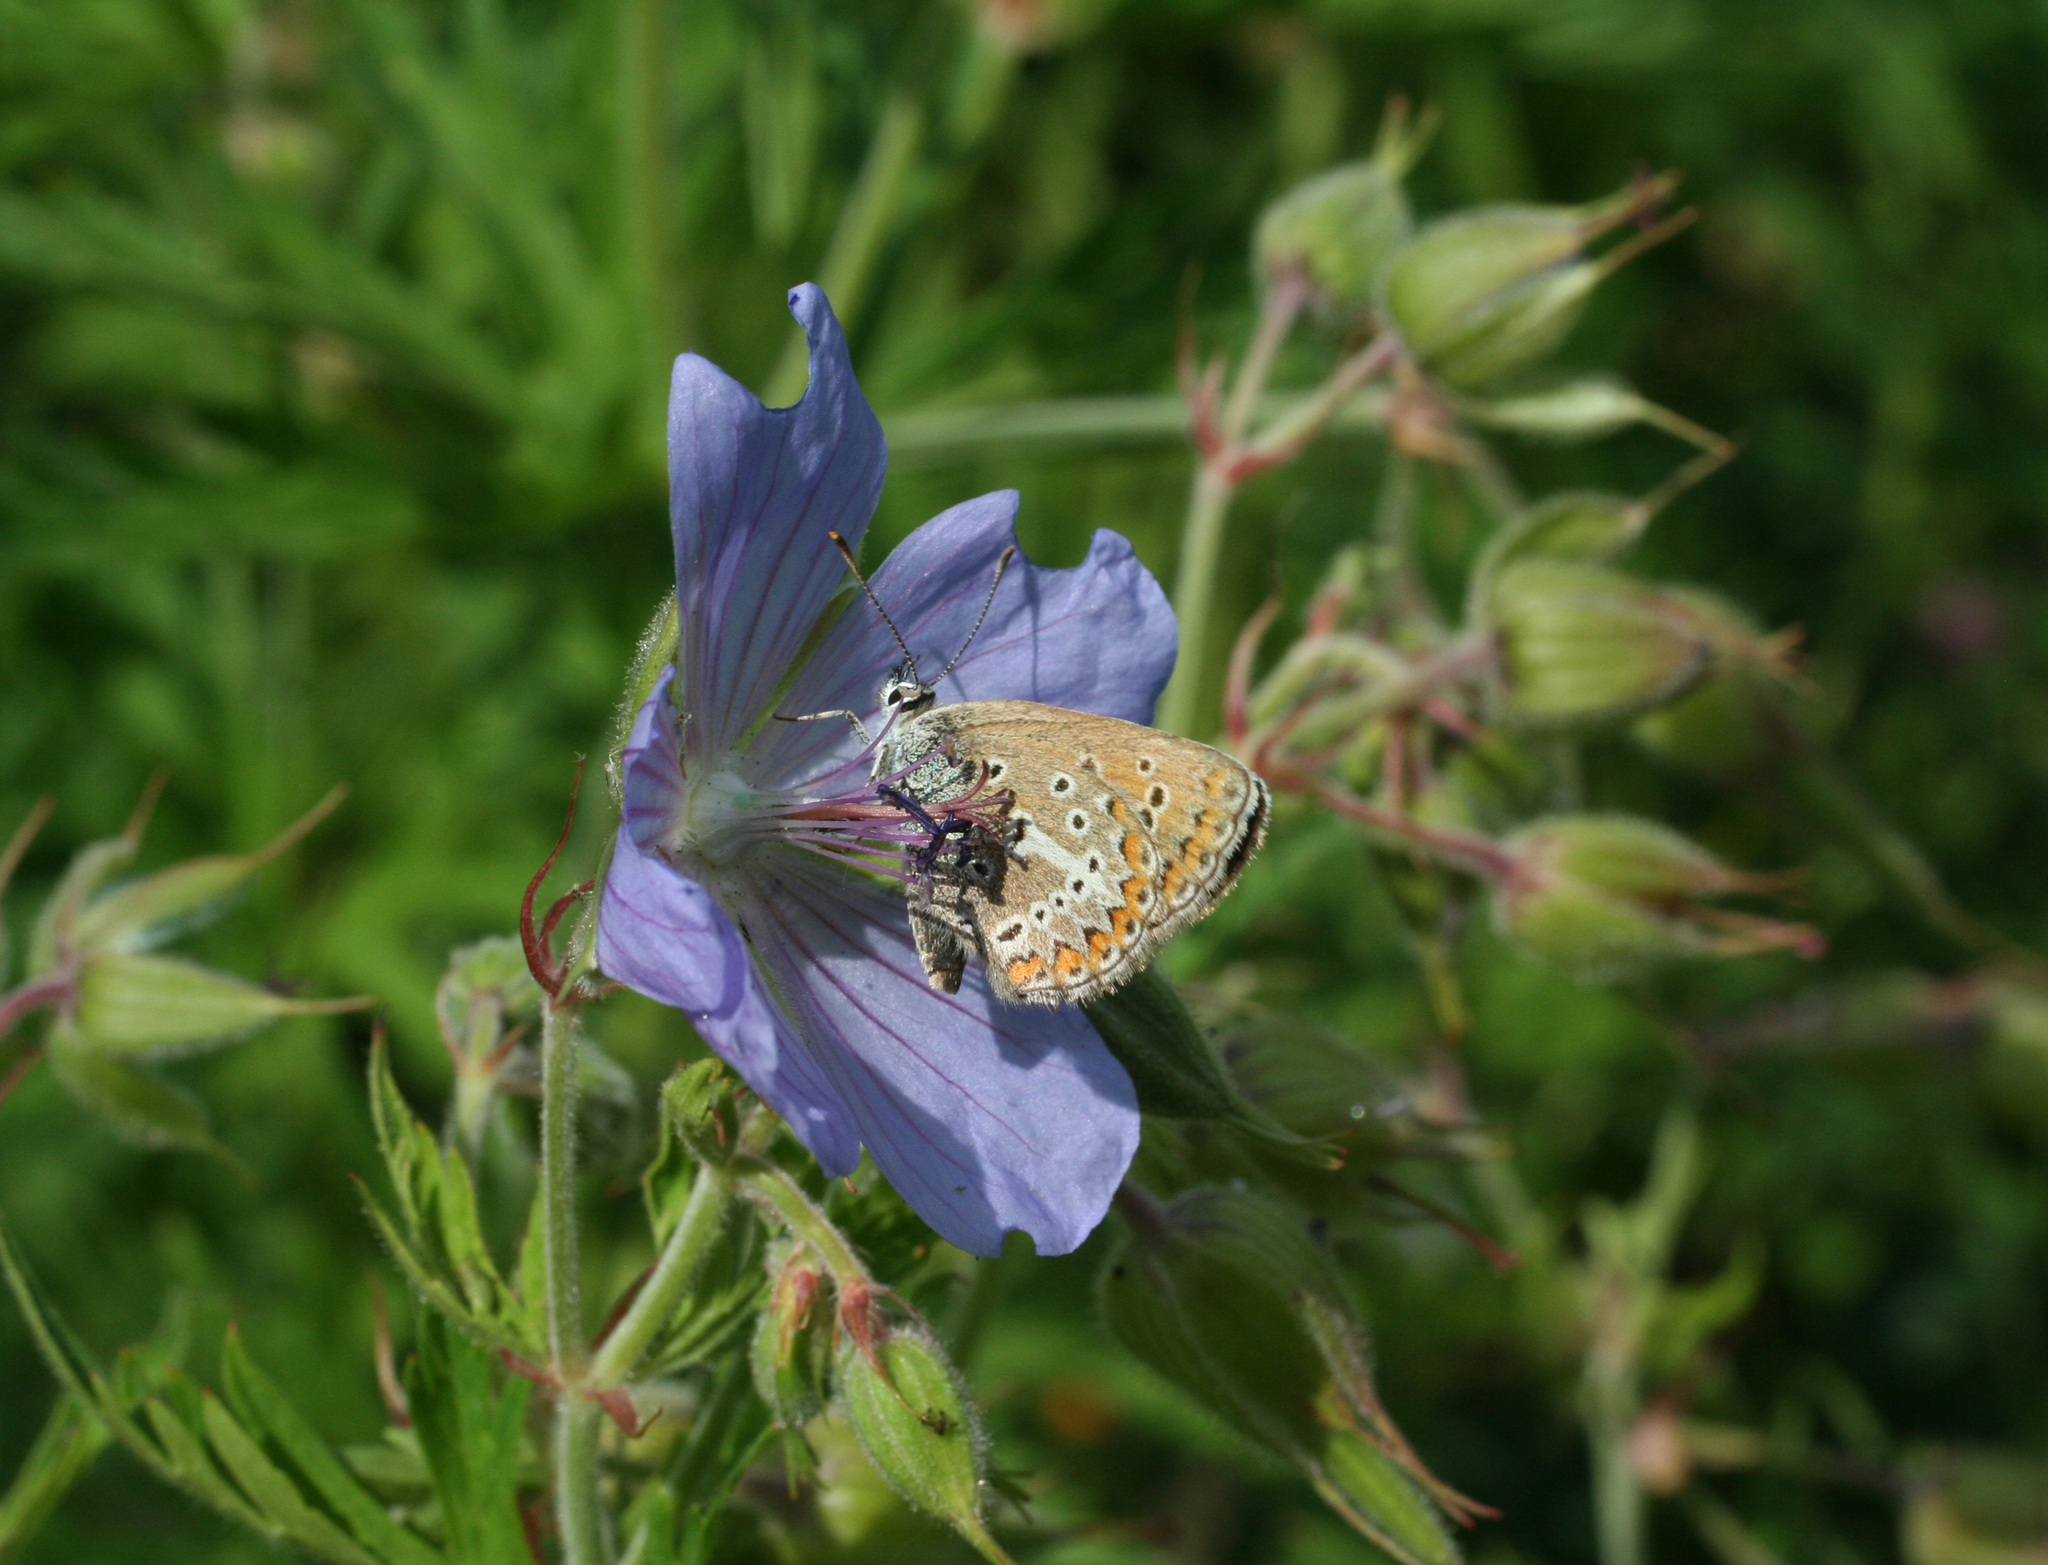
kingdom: Animalia
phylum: Arthropoda
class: Insecta
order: Lepidoptera
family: Lycaenidae
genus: Eumedonia
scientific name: Eumedonia eumedon
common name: Geranium argus
